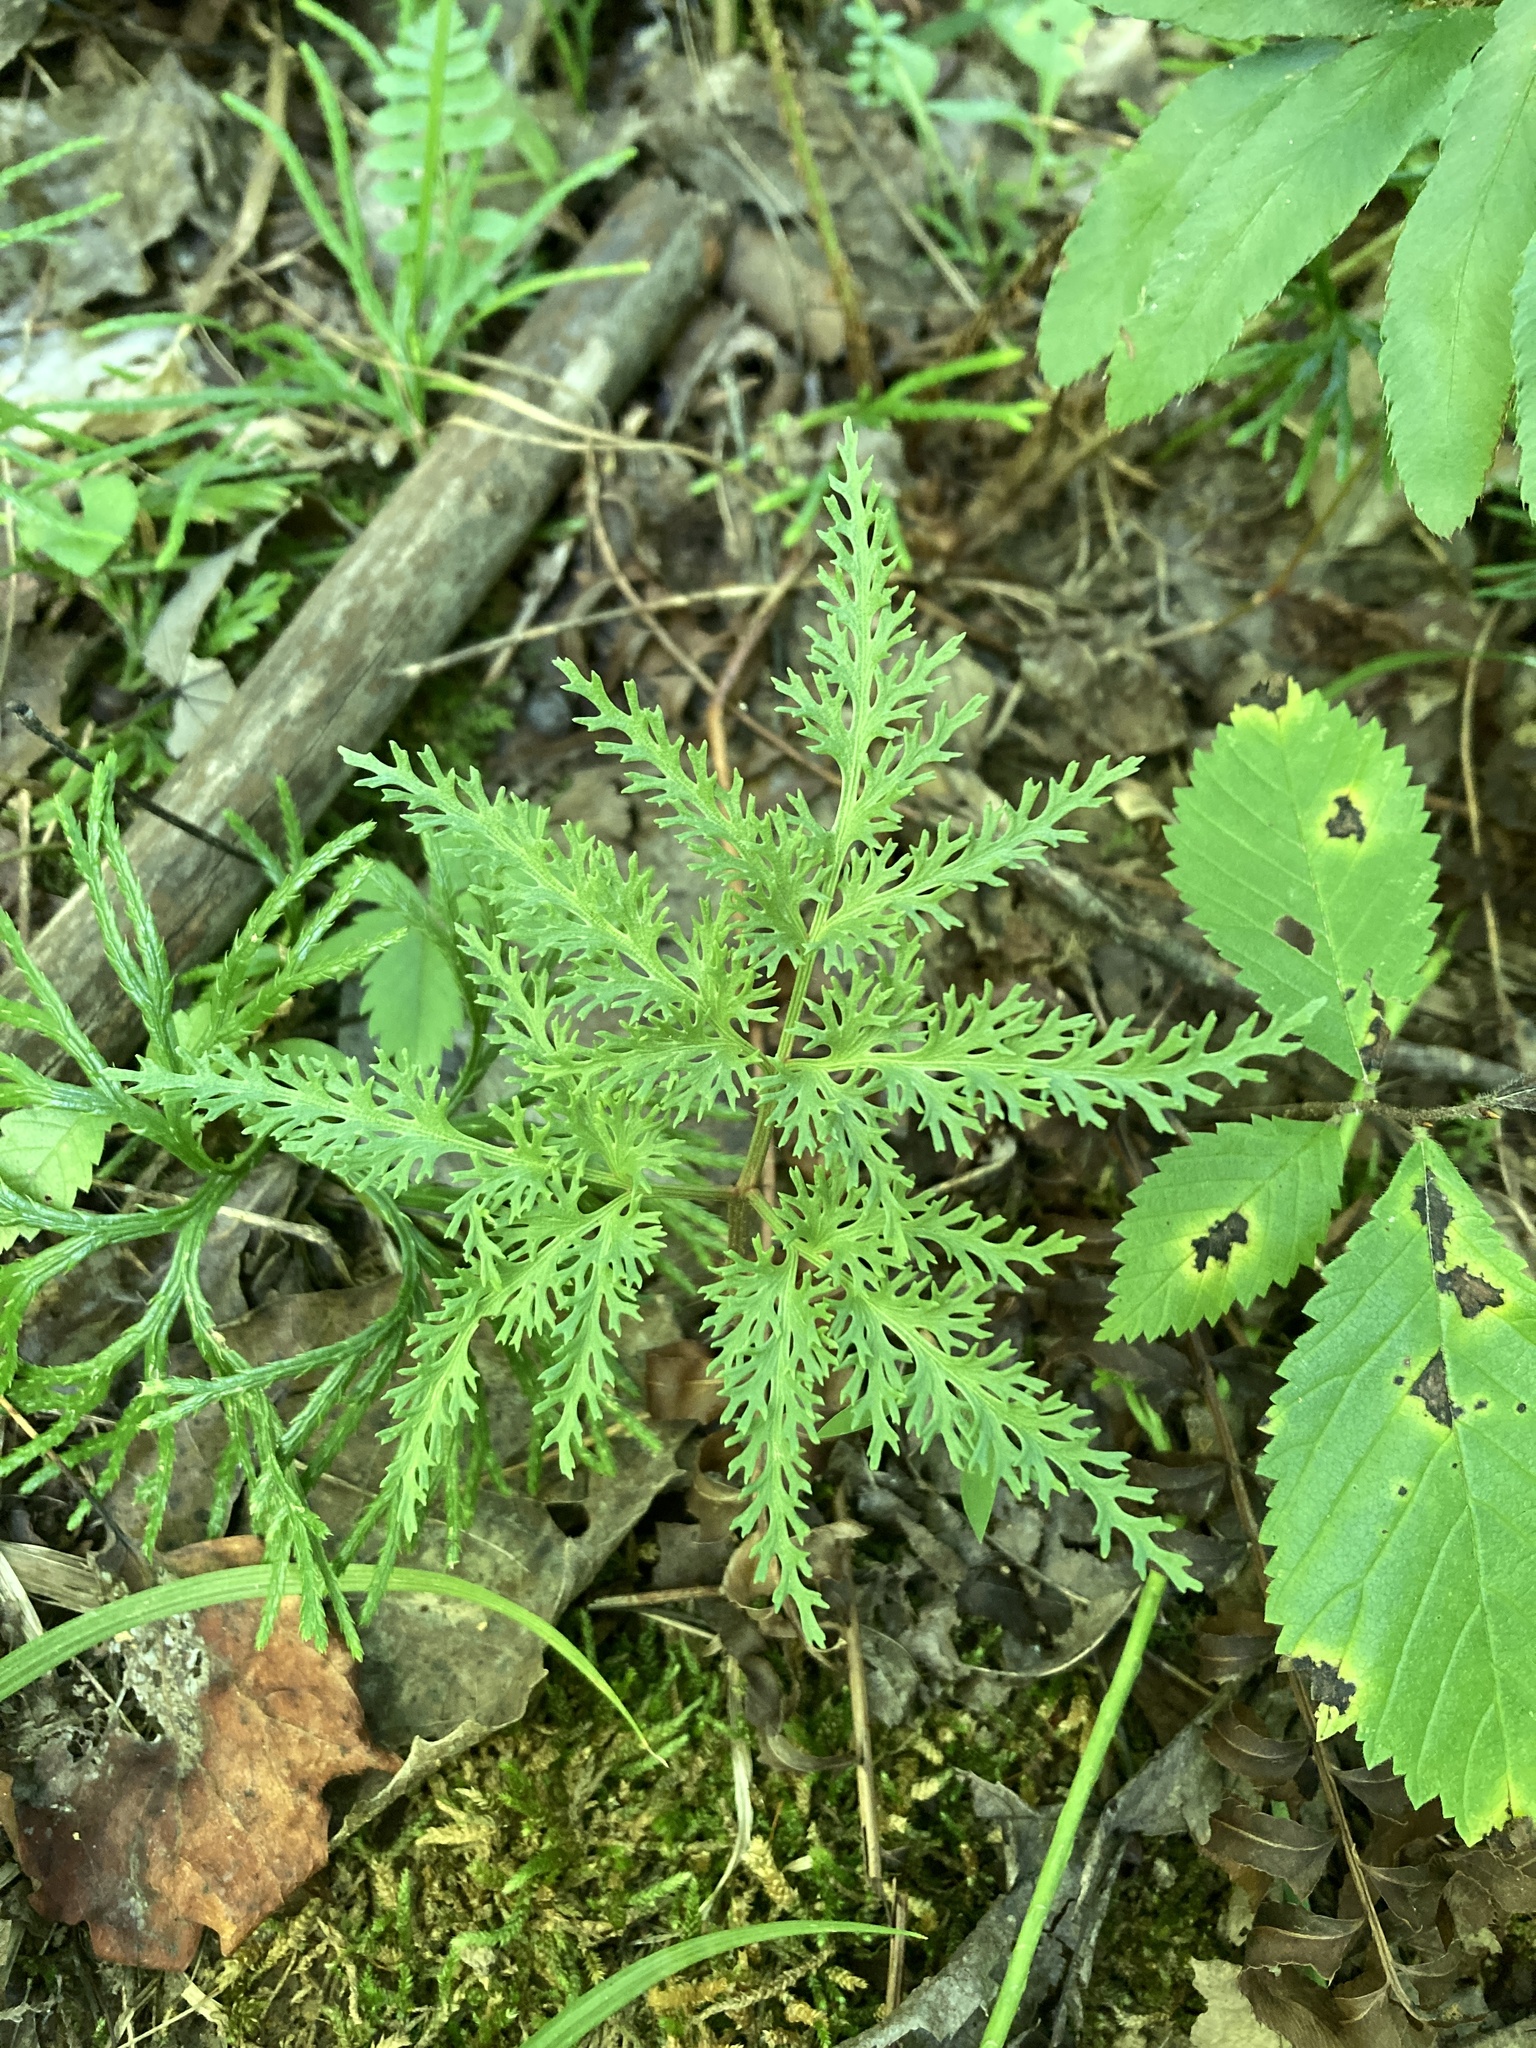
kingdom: Plantae
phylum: Tracheophyta
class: Polypodiopsida
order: Ophioglossales
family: Ophioglossaceae
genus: Sceptridium
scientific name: Sceptridium dissectum
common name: Cut-leaved grapefern
